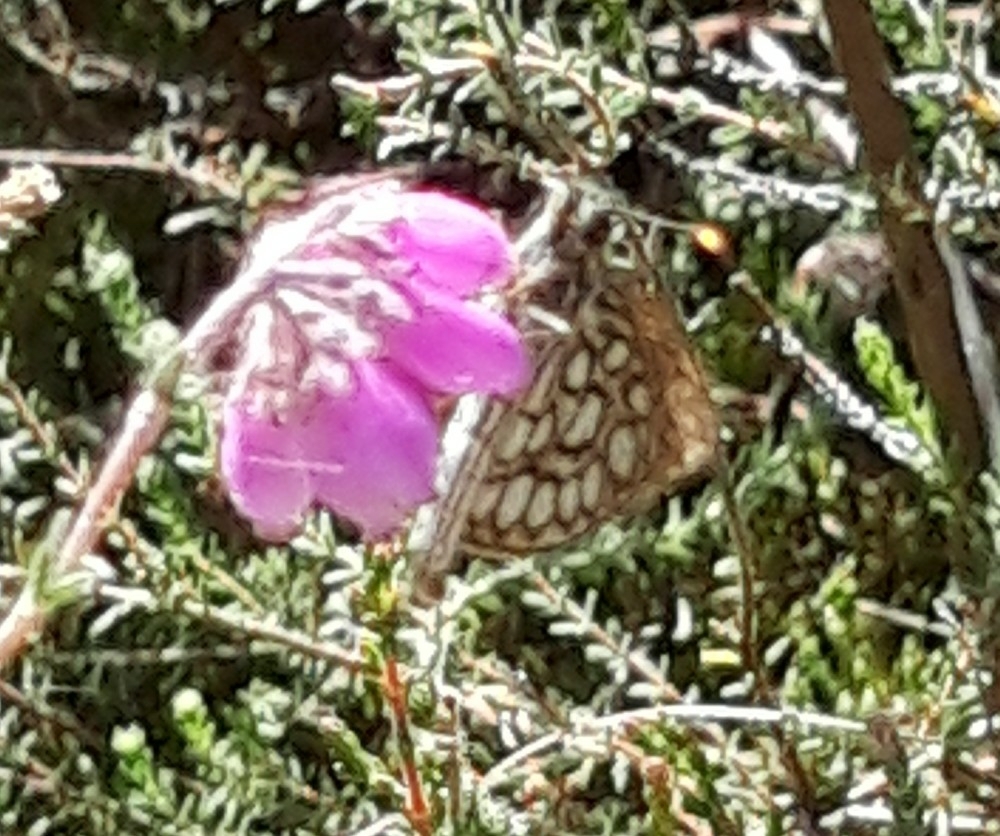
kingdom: Animalia
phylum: Arthropoda
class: Insecta
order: Lepidoptera
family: Hesperiidae
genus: Heteropterus
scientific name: Heteropterus morpheus
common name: Large chequered skipper
